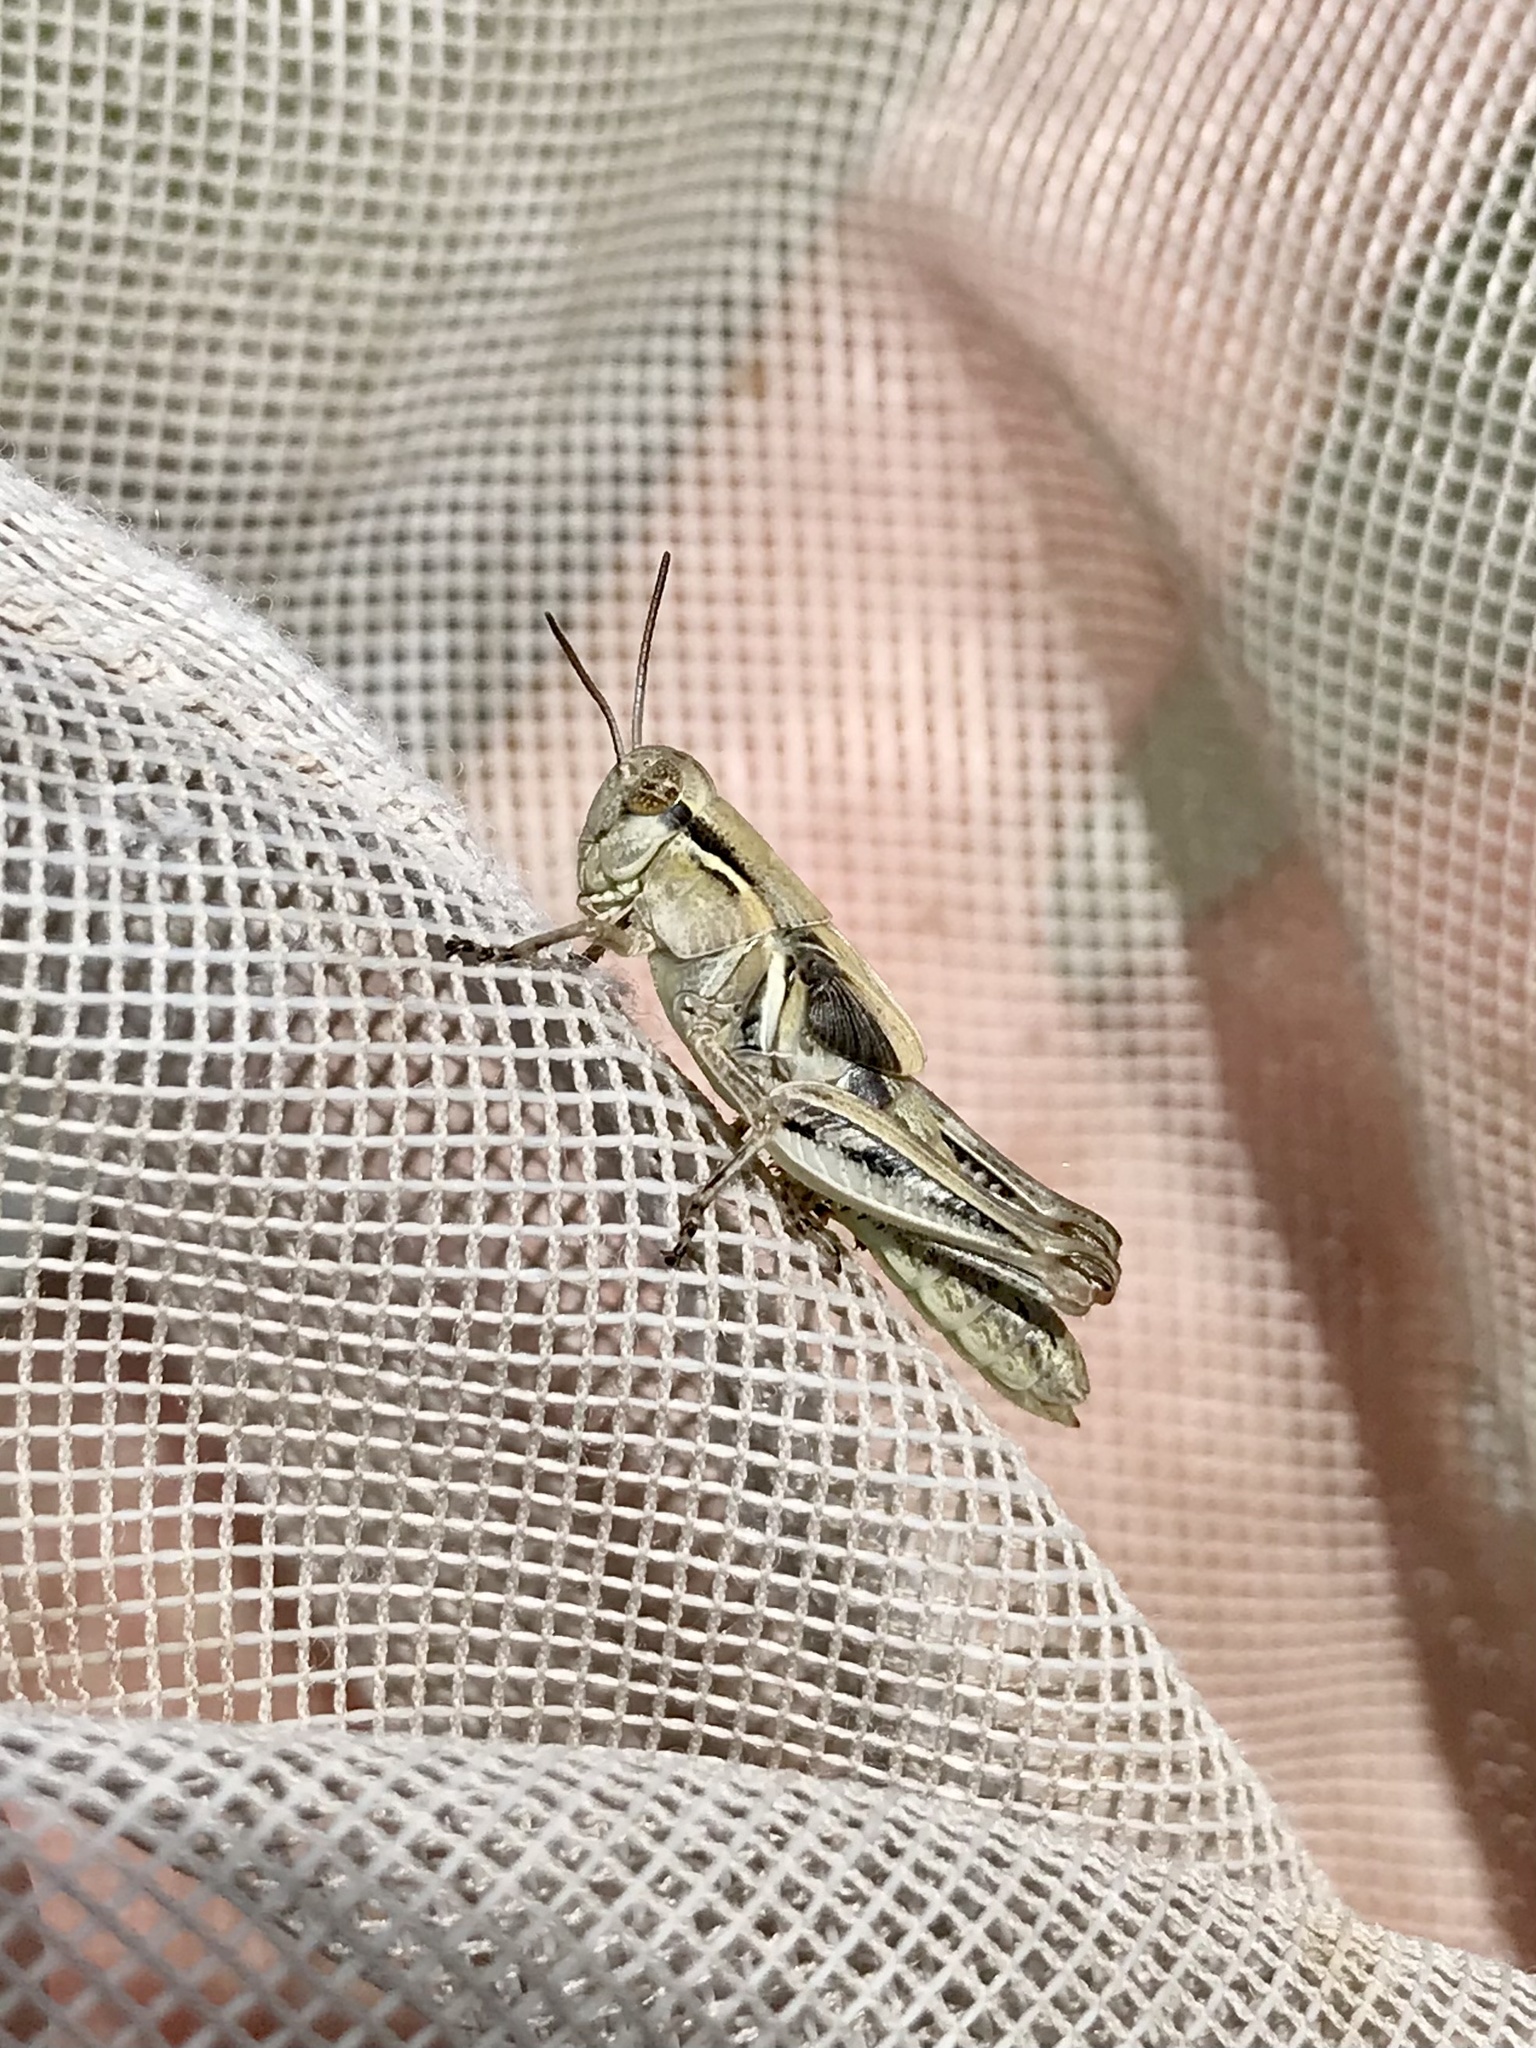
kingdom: Animalia
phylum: Arthropoda
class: Insecta
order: Orthoptera
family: Acrididae
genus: Melanoplus
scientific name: Melanoplus confusus
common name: Little pasture locust
